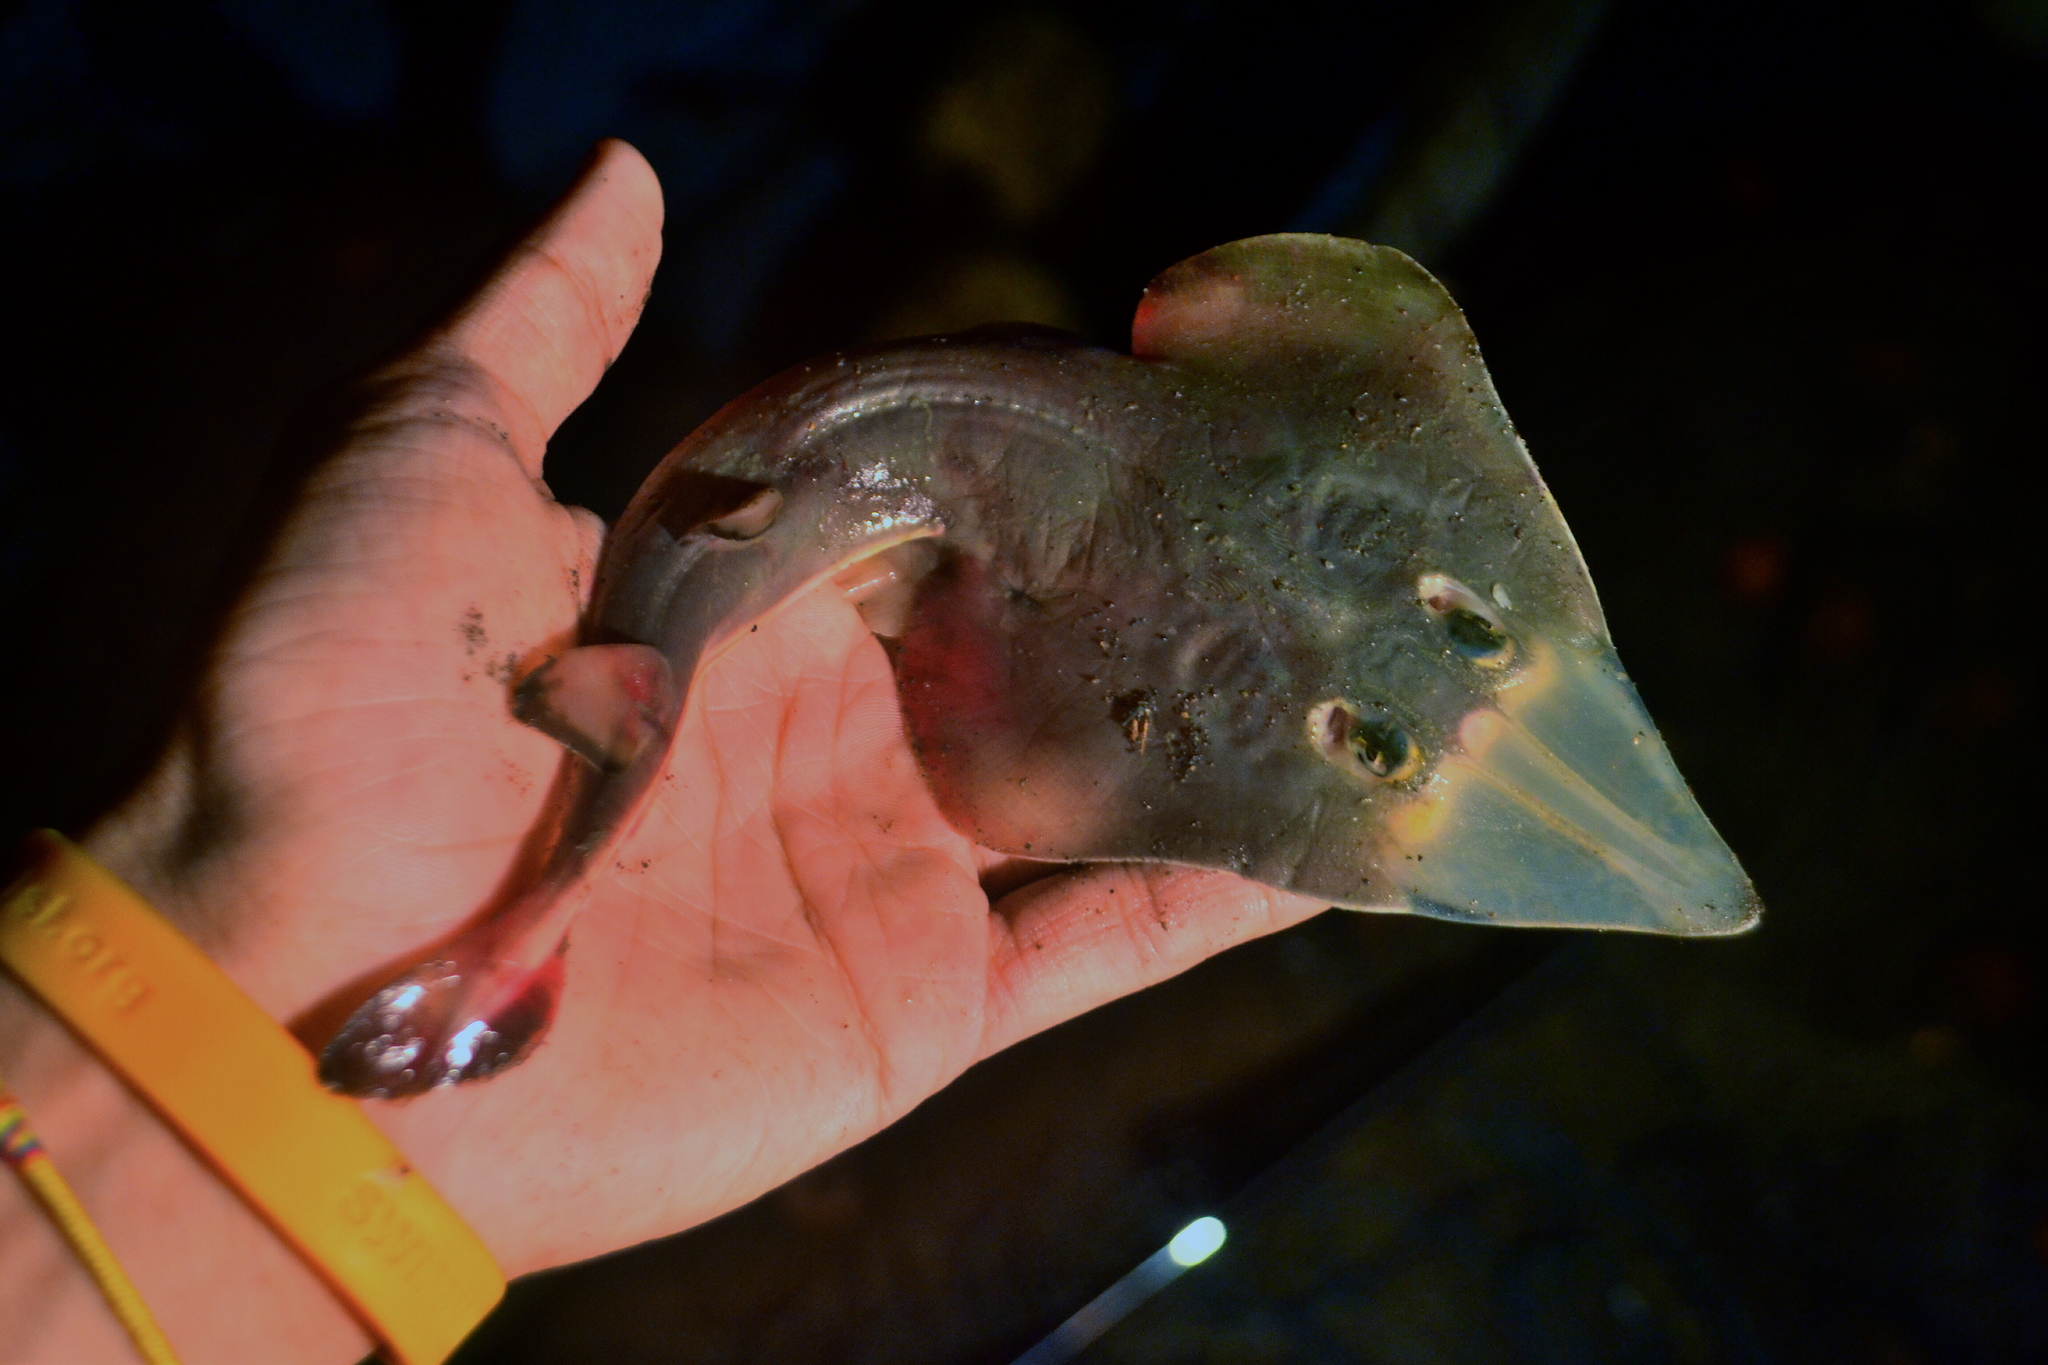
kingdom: Animalia
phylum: Chordata
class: Elasmobranchii
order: Rhinopristiformes
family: Rhinobatidae
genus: Pseudobatos
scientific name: Pseudobatos leucorhynchus
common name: Whitesnout guitarfish
